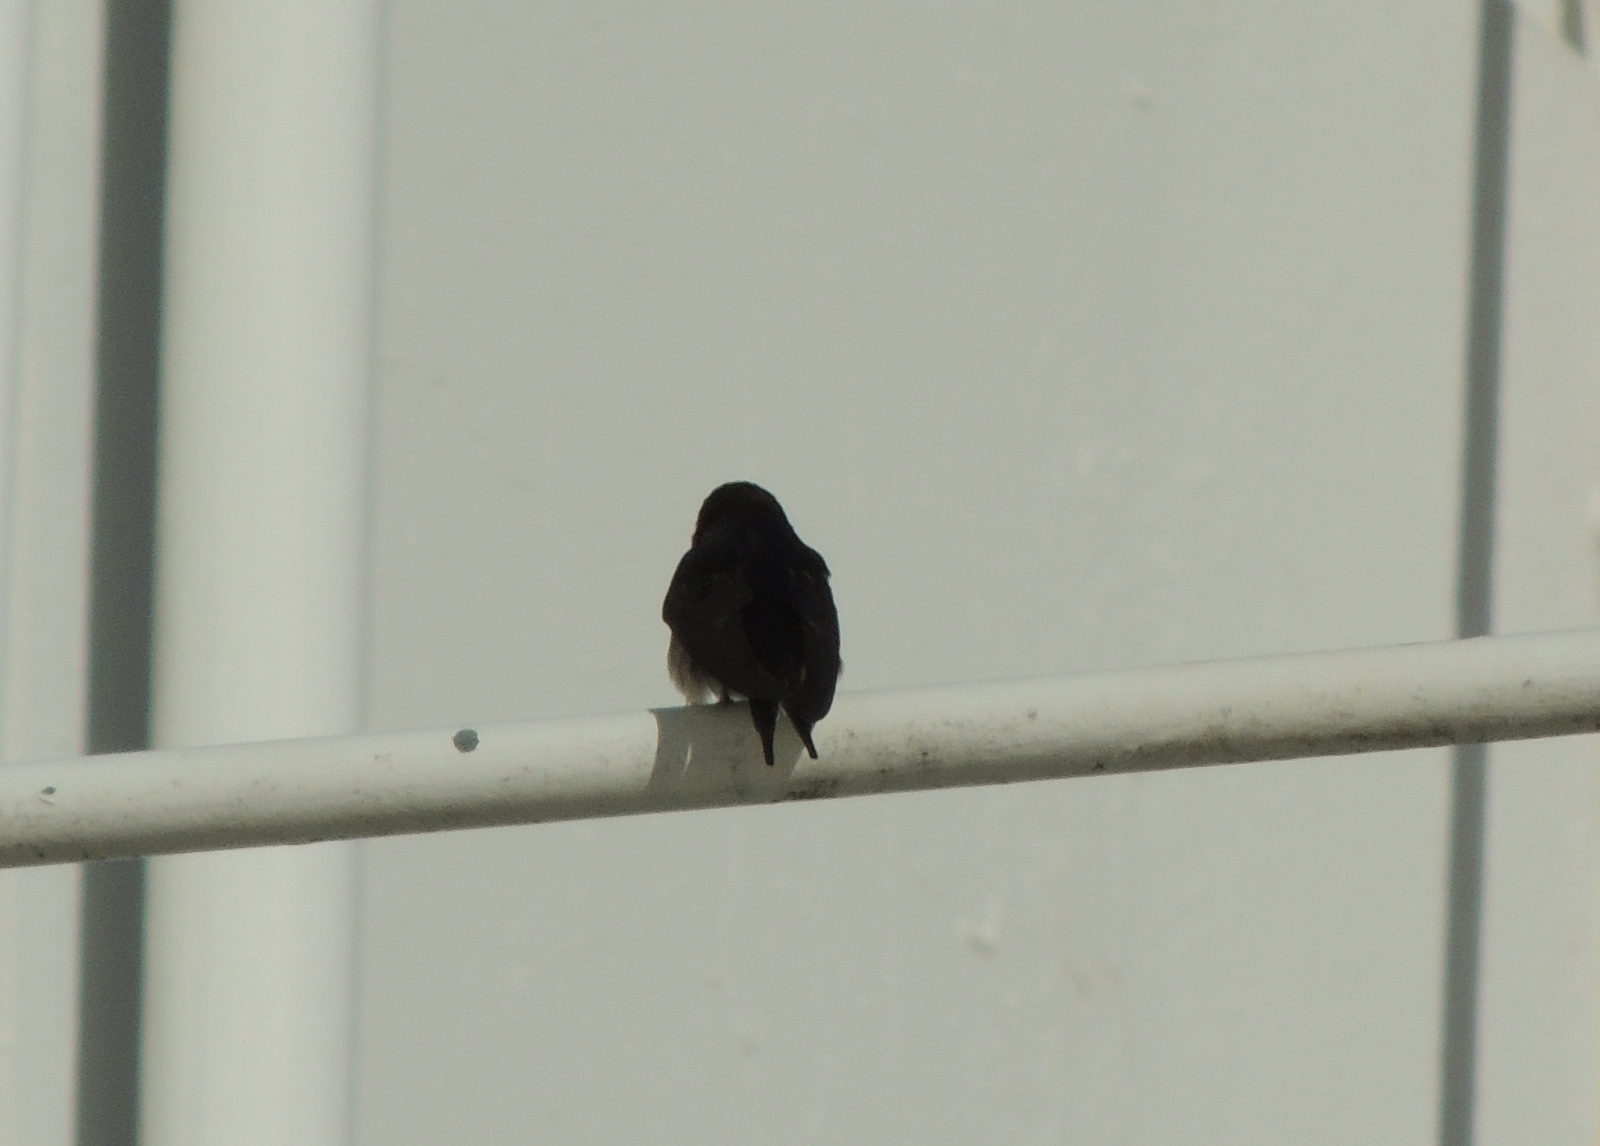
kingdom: Animalia
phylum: Chordata
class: Aves
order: Passeriformes
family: Hirundinidae
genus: Hirundo
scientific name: Hirundo neoxena
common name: Welcome swallow
